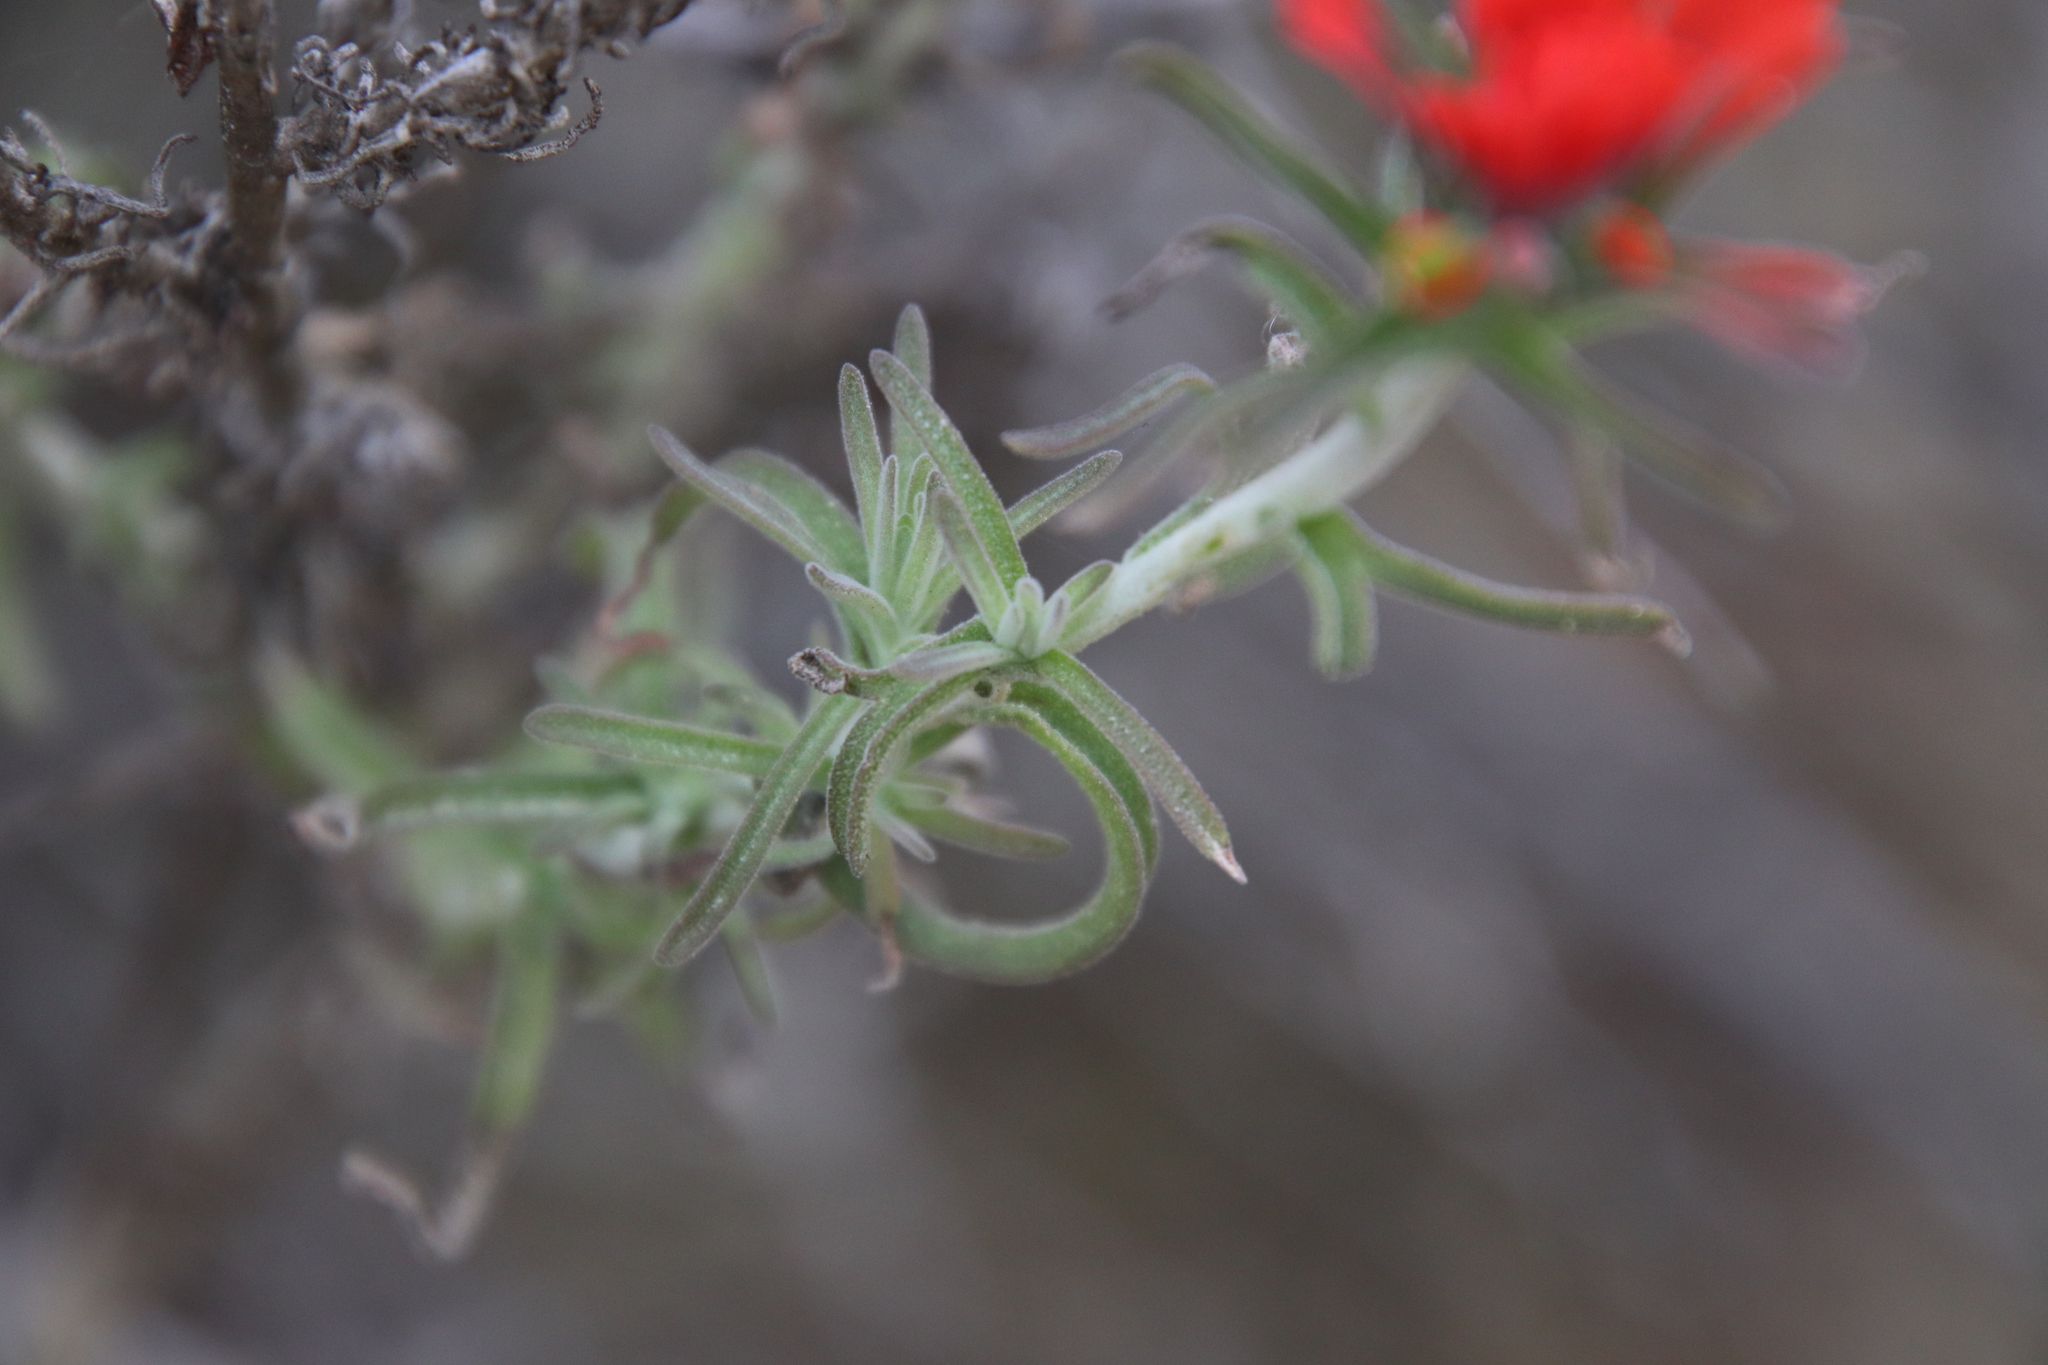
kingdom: Plantae
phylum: Tracheophyta
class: Magnoliopsida
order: Lamiales
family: Orobanchaceae
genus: Castilleja
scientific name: Castilleja foliolosa
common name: Woolly indian paintbrush
